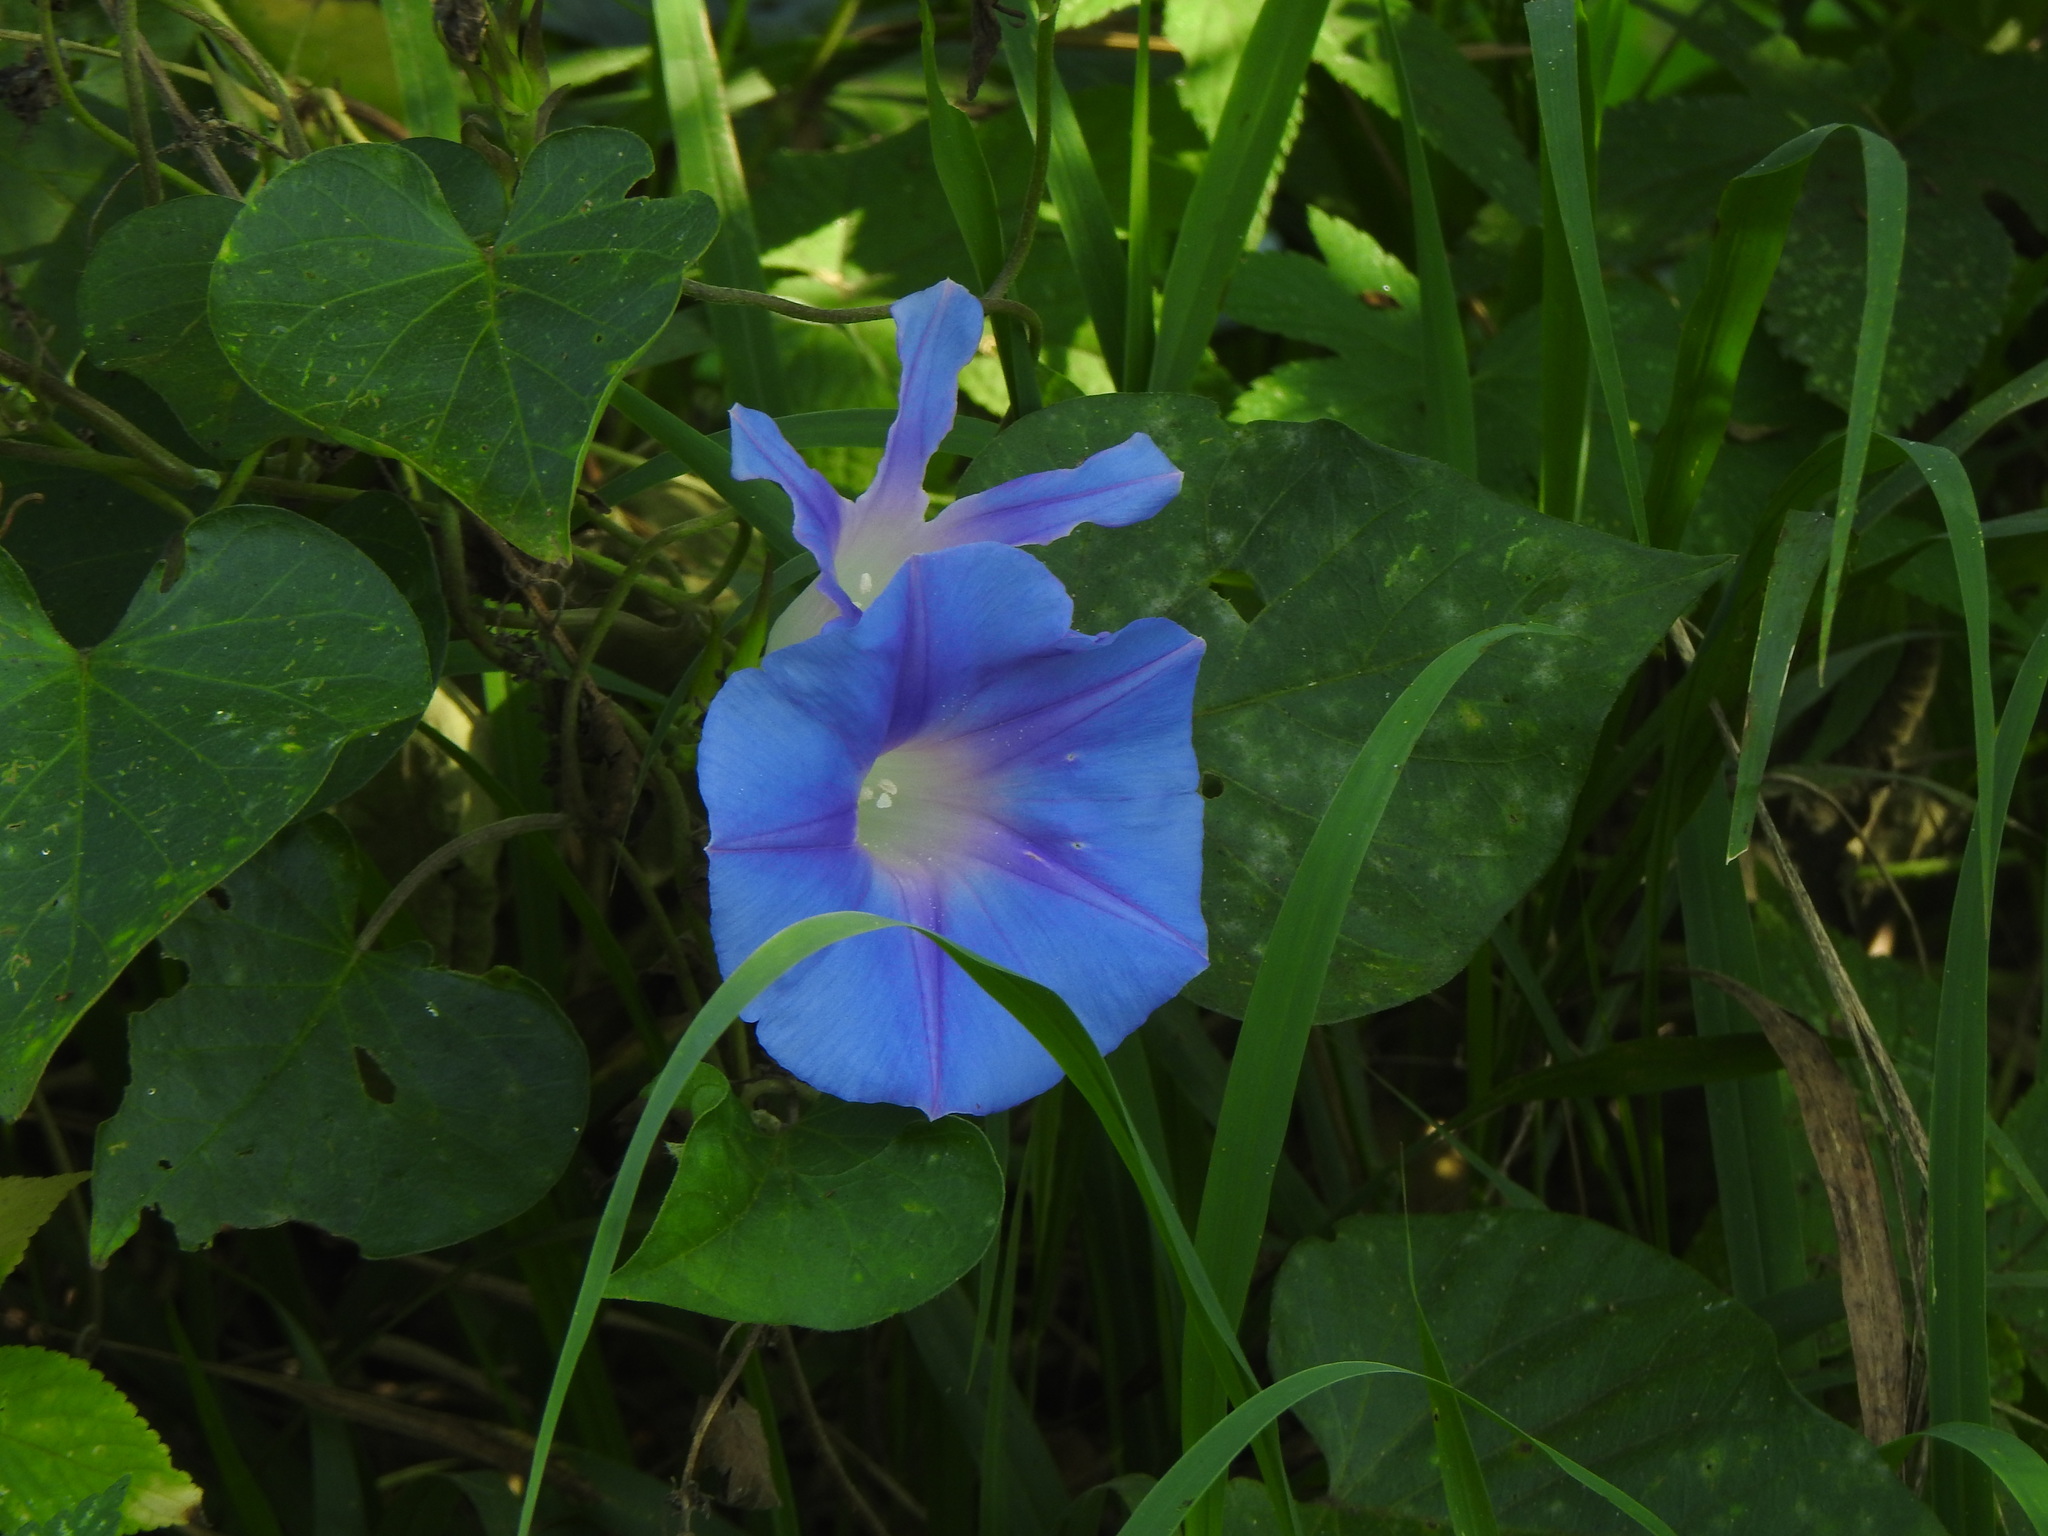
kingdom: Plantae
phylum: Tracheophyta
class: Magnoliopsida
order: Solanales
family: Convolvulaceae
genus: Ipomoea
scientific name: Ipomoea indica
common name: Blue dawnflower
